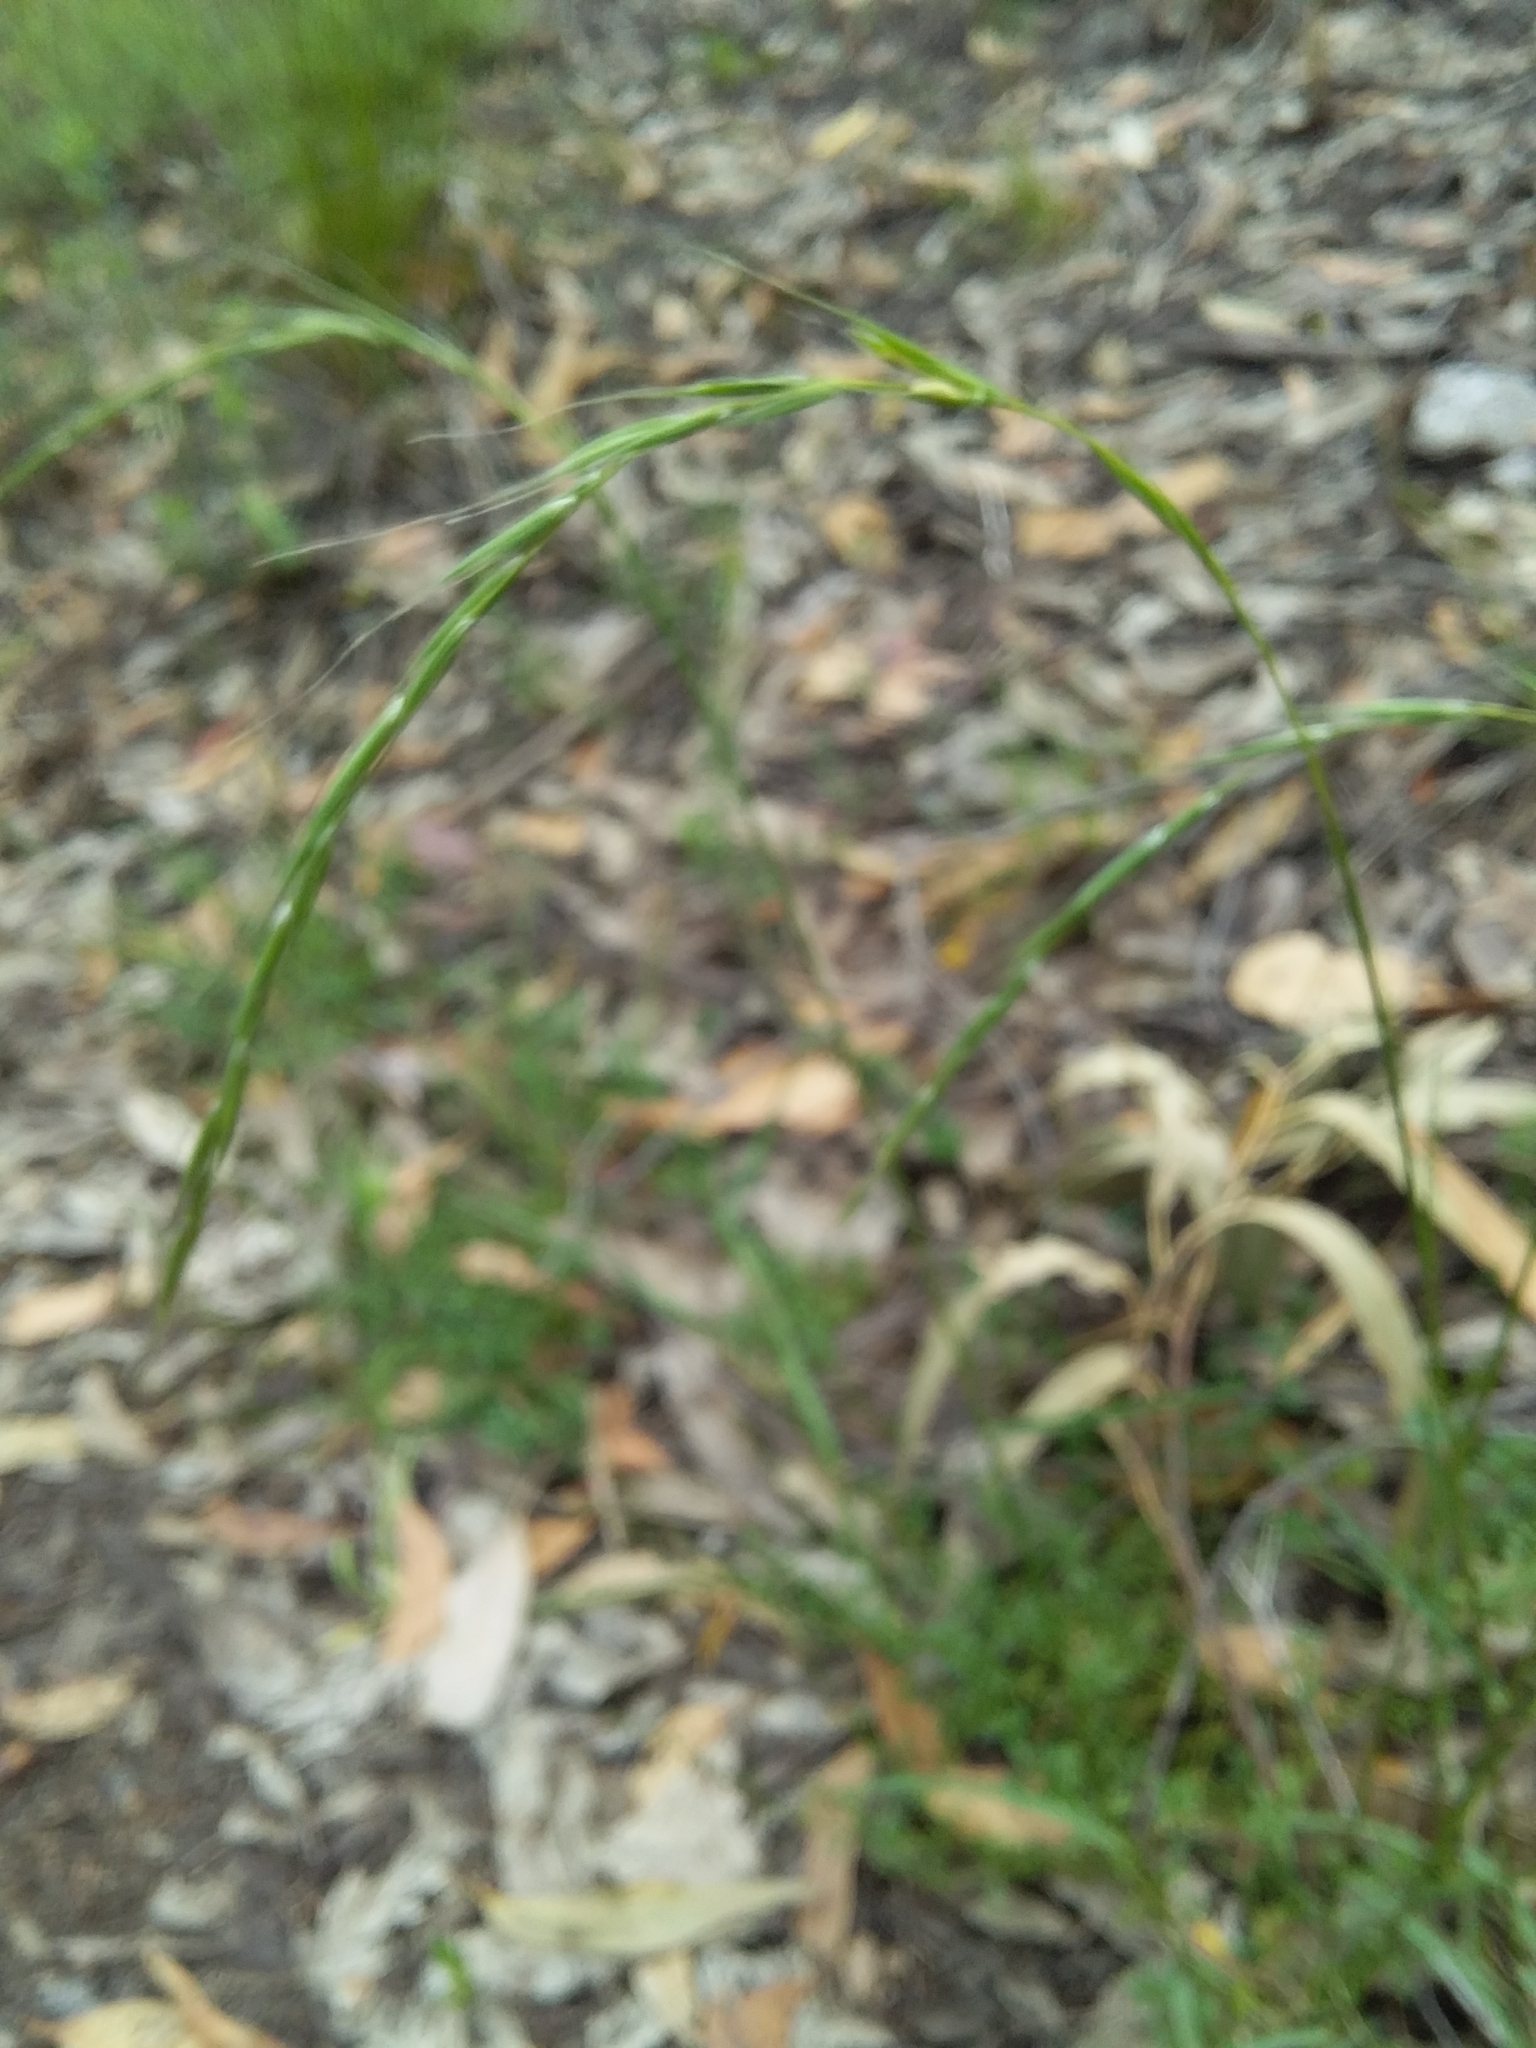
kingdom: Plantae
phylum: Tracheophyta
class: Liliopsida
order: Poales
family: Poaceae
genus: Microlaena
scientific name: Microlaena stipoides
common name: Meadow ricegrass
